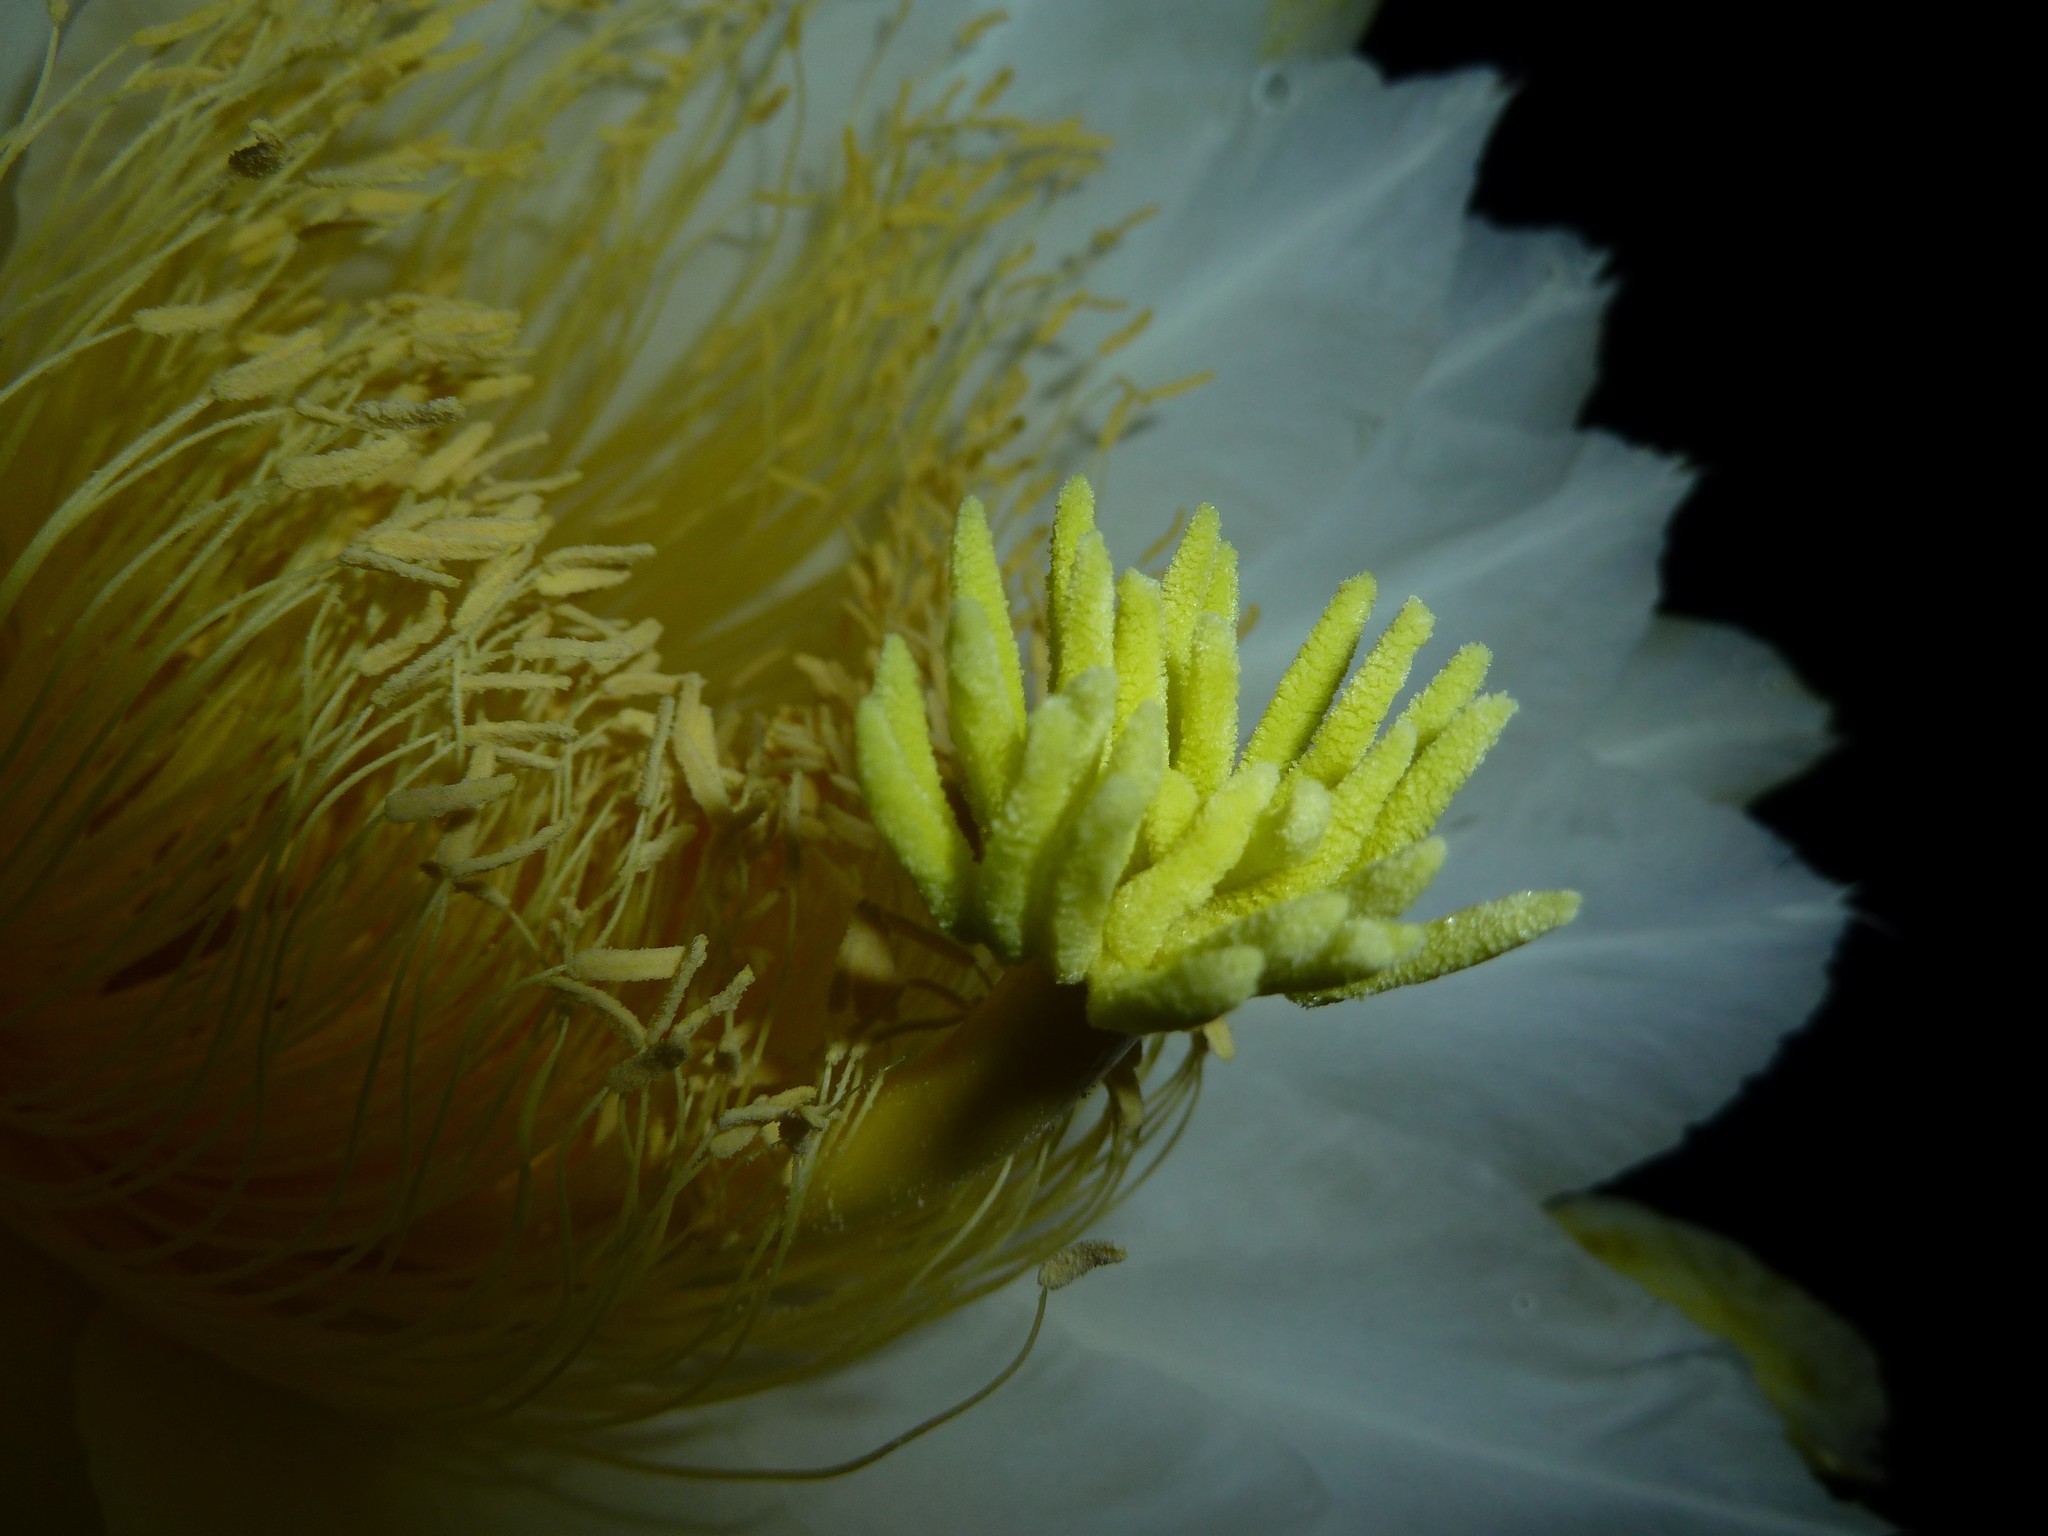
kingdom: Plantae
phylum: Tracheophyta
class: Magnoliopsida
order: Caryophyllales
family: Cactaceae
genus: Selenicereus
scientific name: Selenicereus costaricensis
